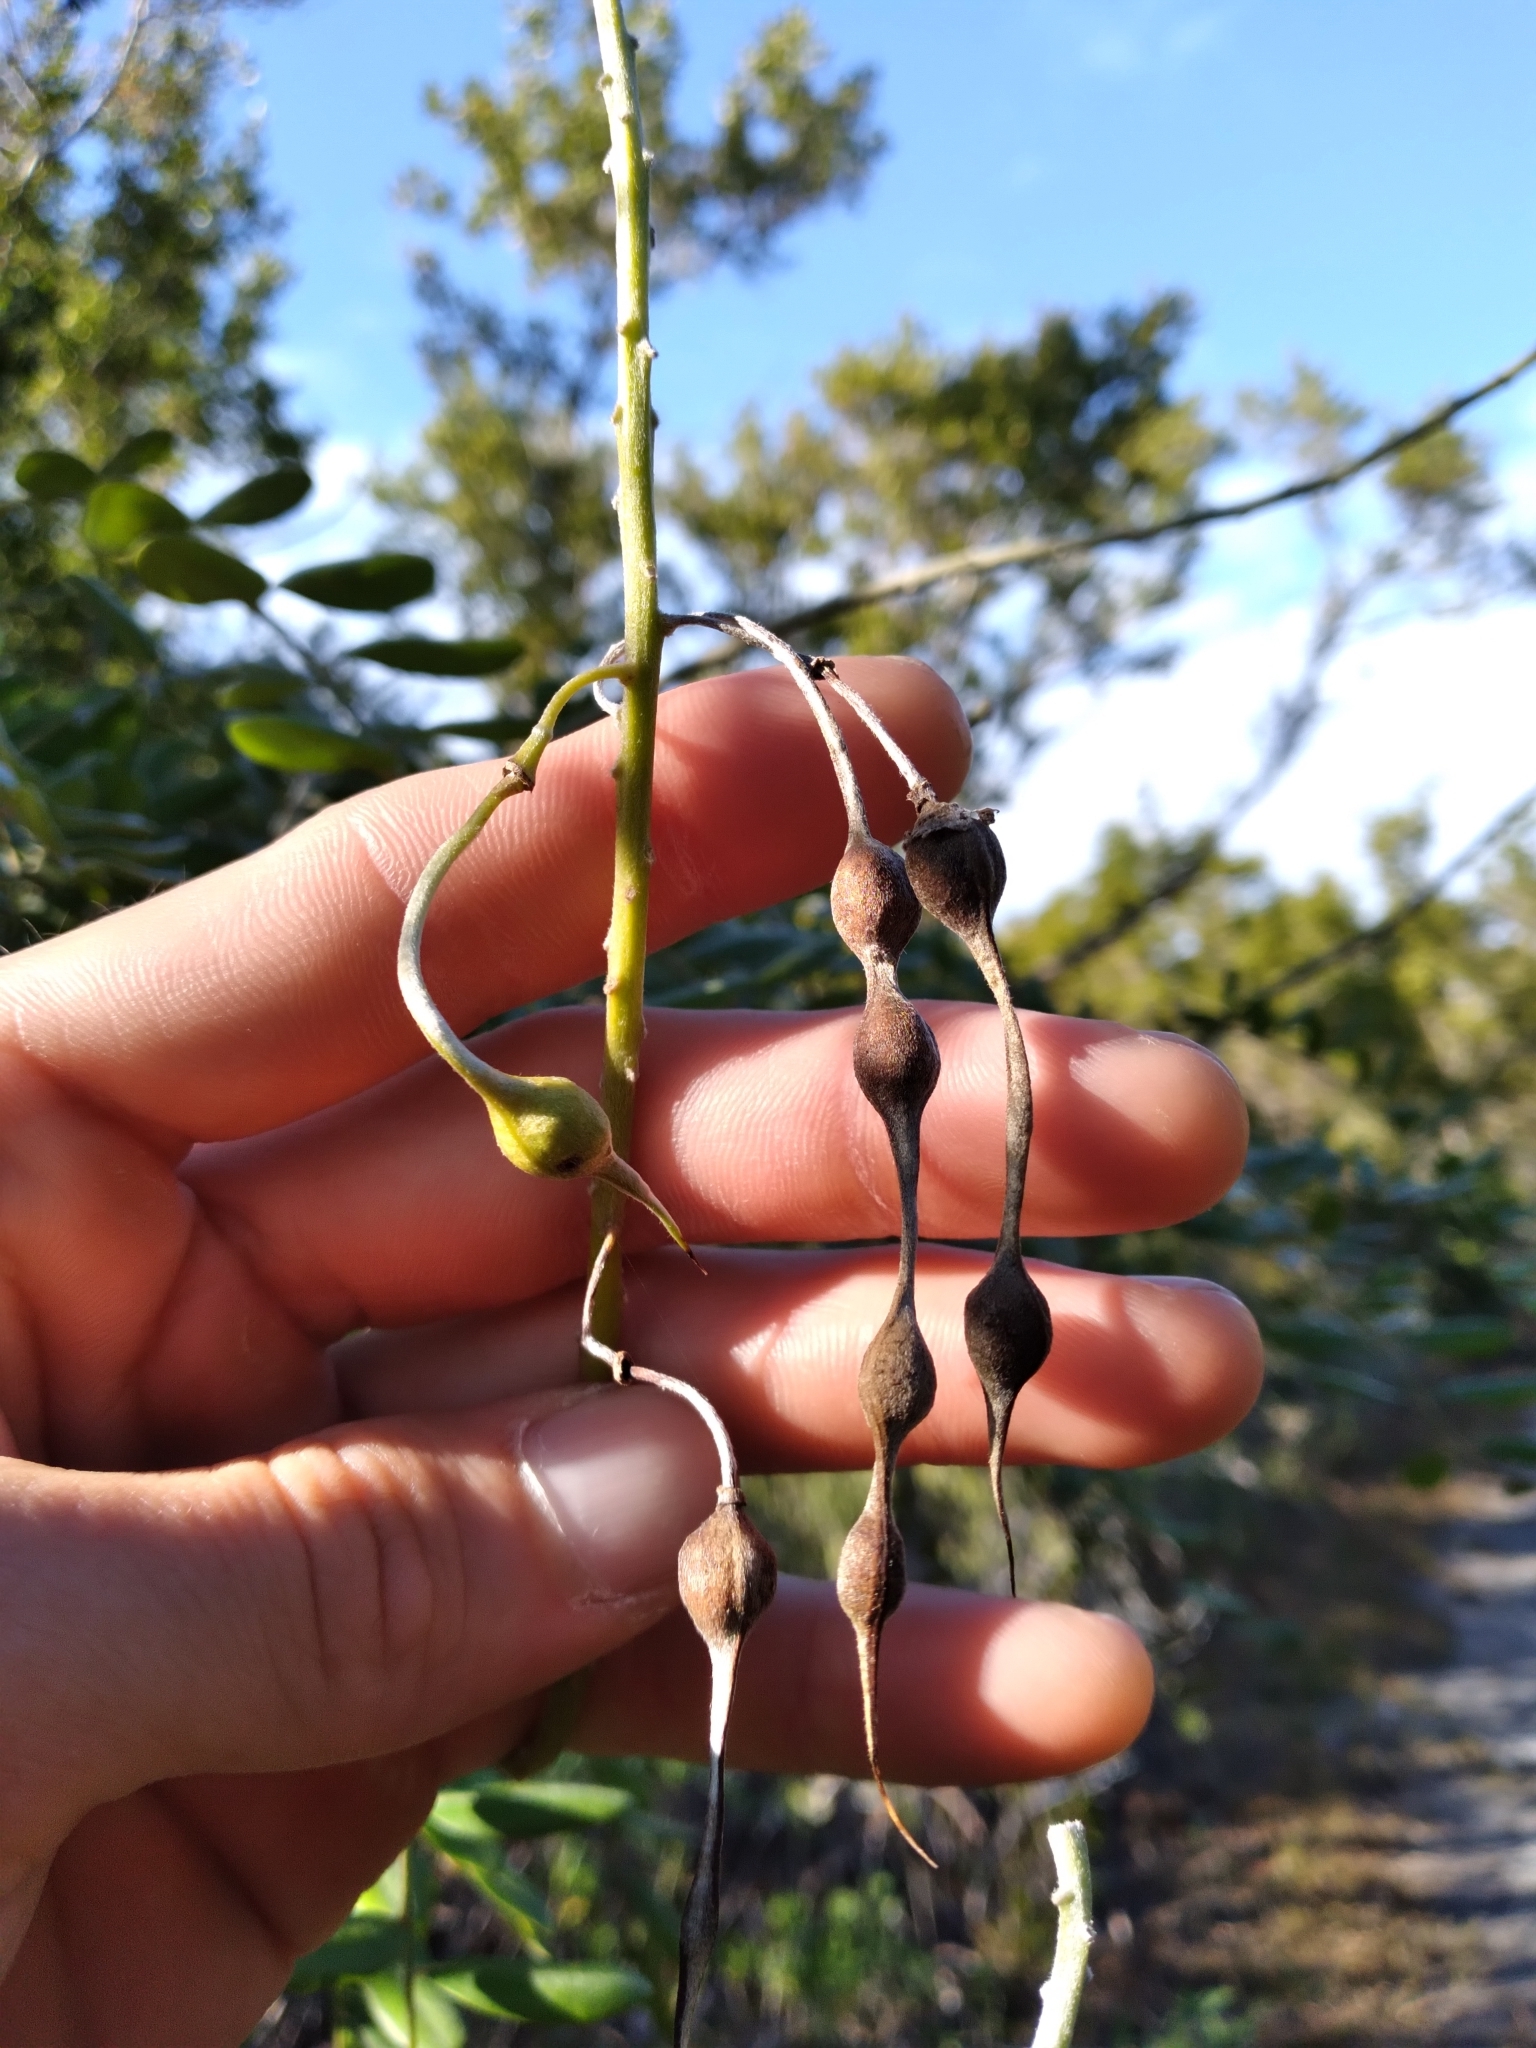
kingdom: Plantae
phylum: Tracheophyta
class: Magnoliopsida
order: Fabales
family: Fabaceae
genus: Sophora
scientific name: Sophora tomentosa
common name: Yellow necklacepod
